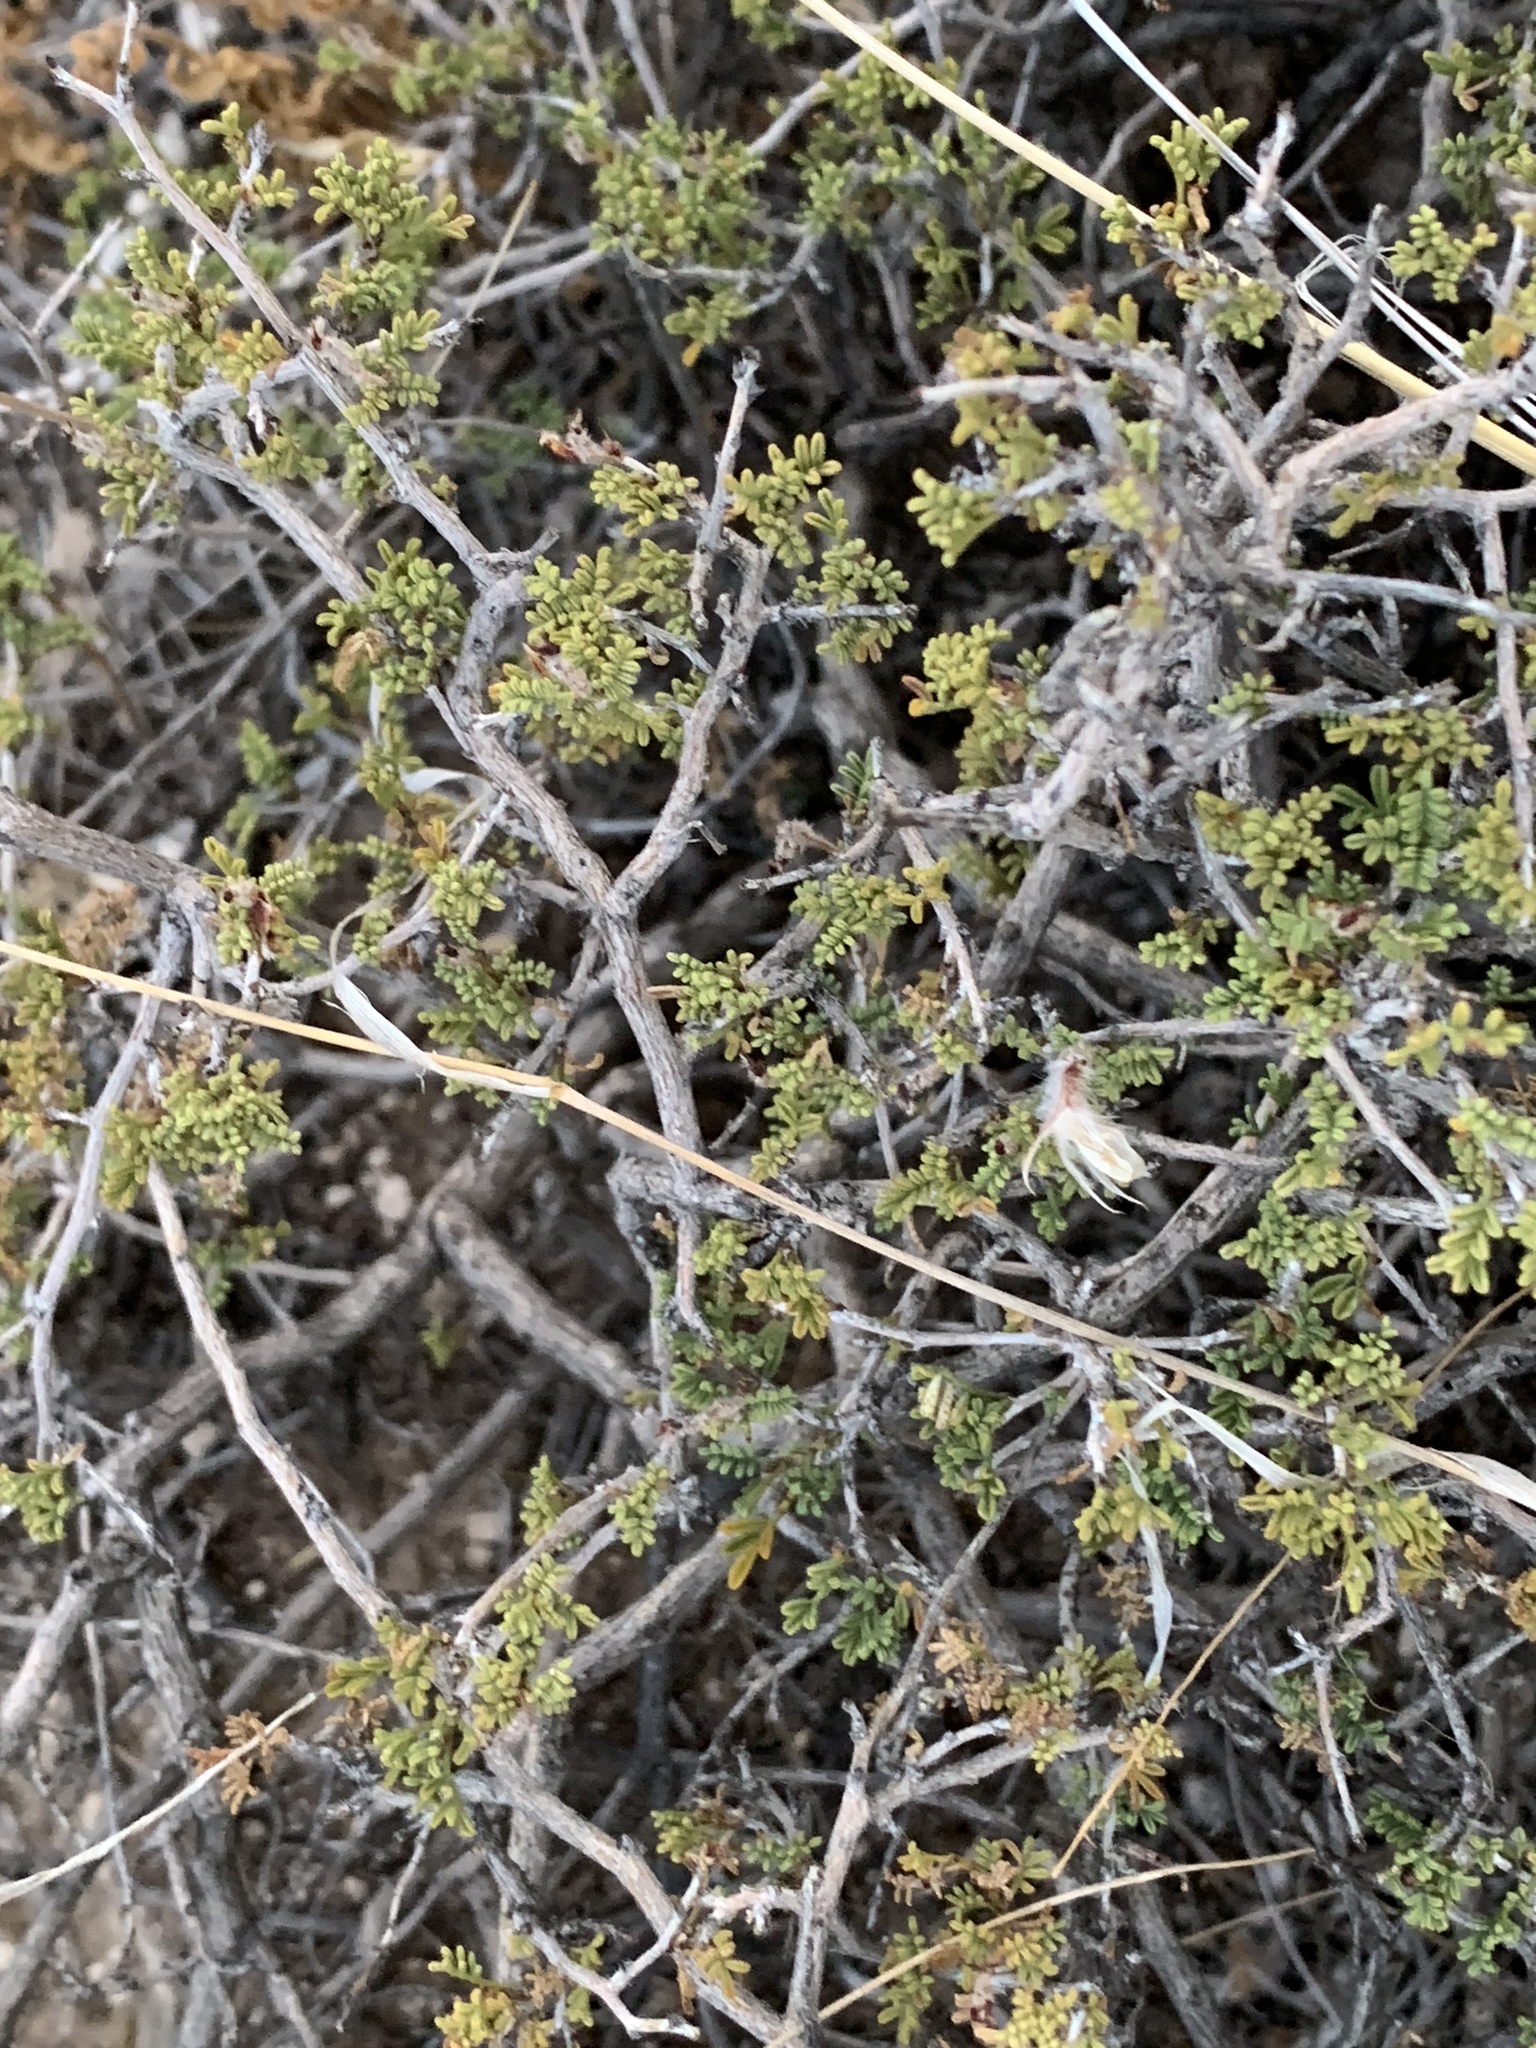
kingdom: Plantae
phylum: Tracheophyta
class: Magnoliopsida
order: Fabales
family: Fabaceae
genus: Dalea
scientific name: Dalea formosa
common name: Feather-plume dalea
